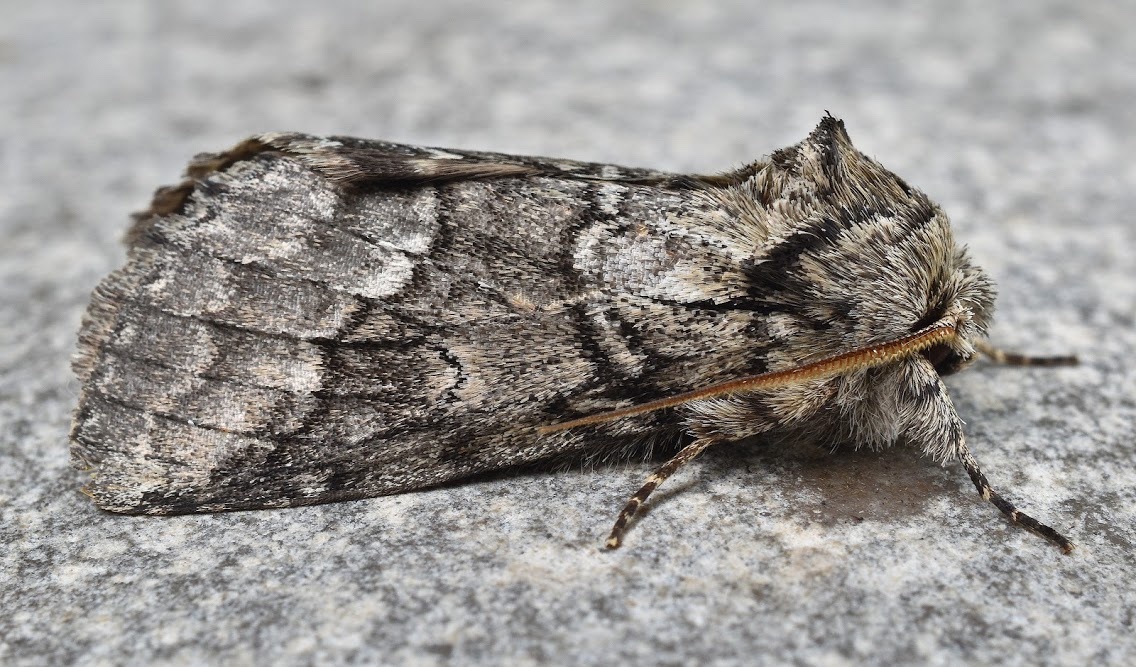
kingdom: Animalia
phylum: Arthropoda
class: Insecta
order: Lepidoptera
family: Notodontidae
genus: Lochmaeus
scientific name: Lochmaeus bilineata
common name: Double-lined prominent
